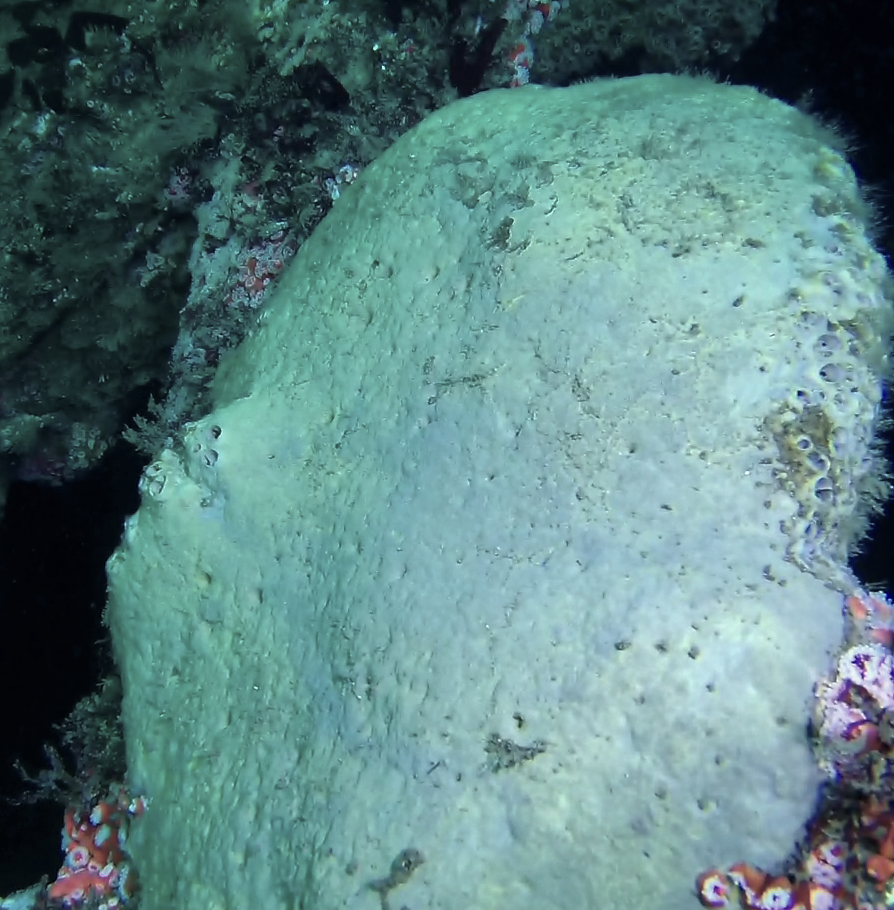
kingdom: Animalia
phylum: Porifera
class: Demospongiae
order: Clionaida
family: Clionaidae
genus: Spheciospongia
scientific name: Spheciospongia confoederata
